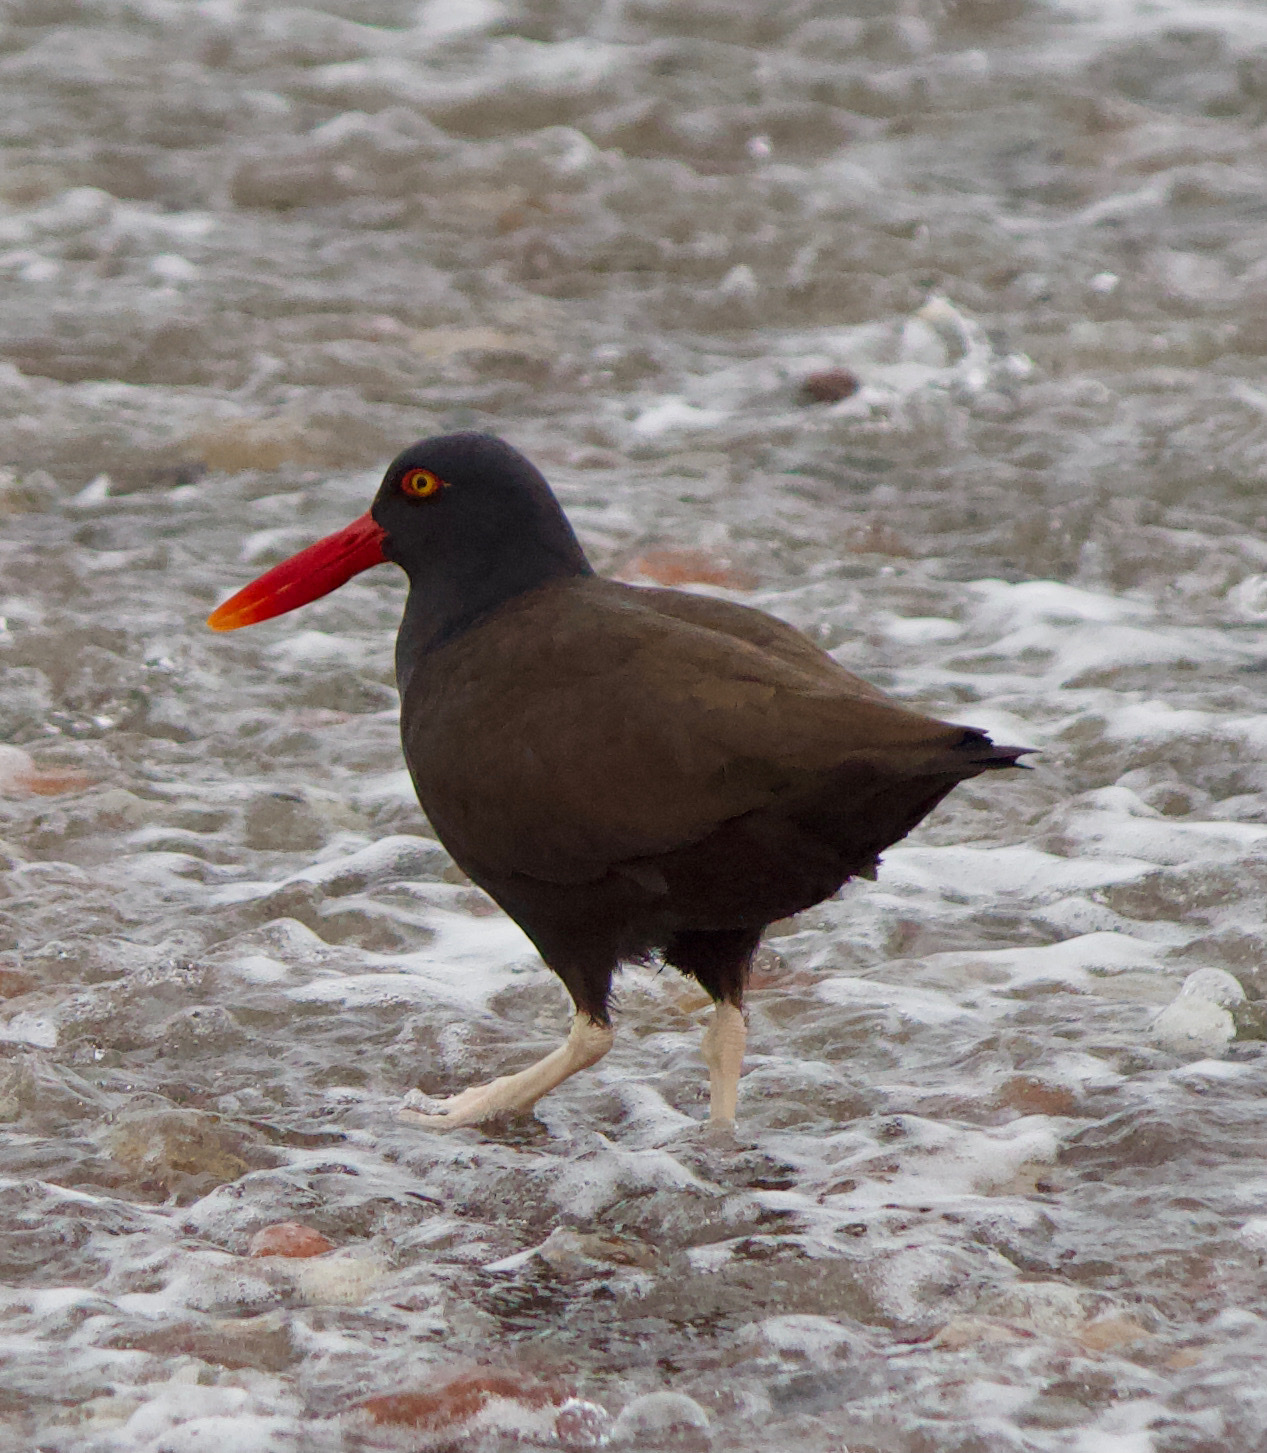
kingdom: Animalia
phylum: Chordata
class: Aves
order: Charadriiformes
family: Haematopodidae
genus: Haematopus
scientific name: Haematopus ater
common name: Blackish oystercatcher
